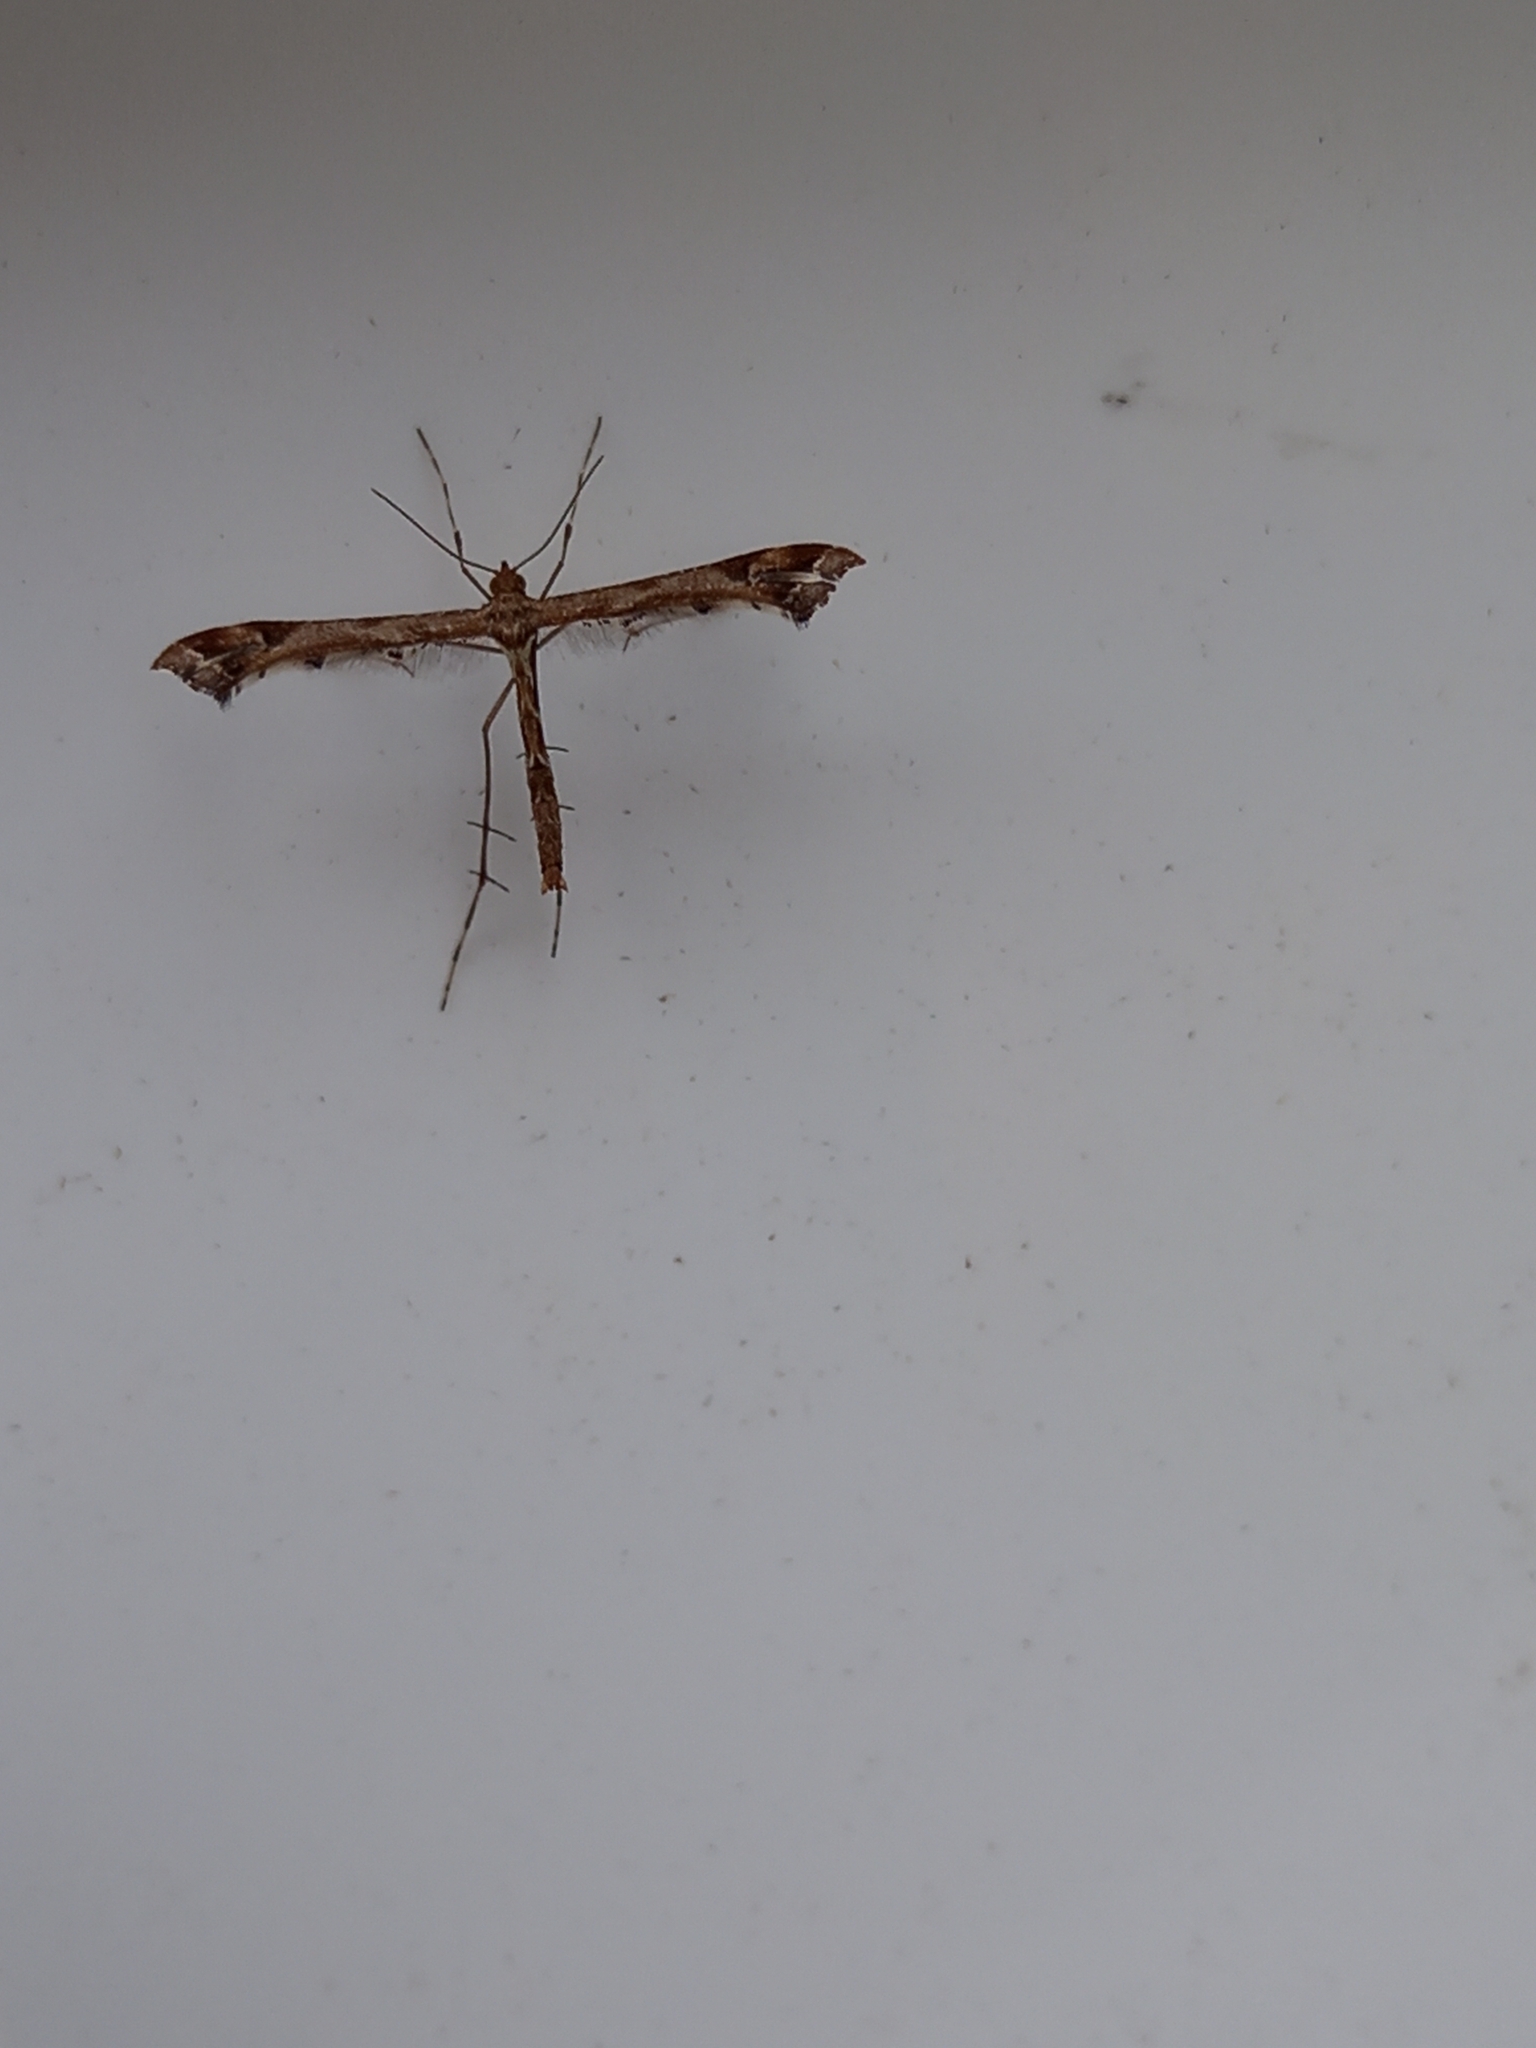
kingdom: Animalia
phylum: Arthropoda
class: Insecta
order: Lepidoptera
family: Pterophoridae
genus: Amblyptilia
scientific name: Amblyptilia acanthadactyla
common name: Beautiful plume
